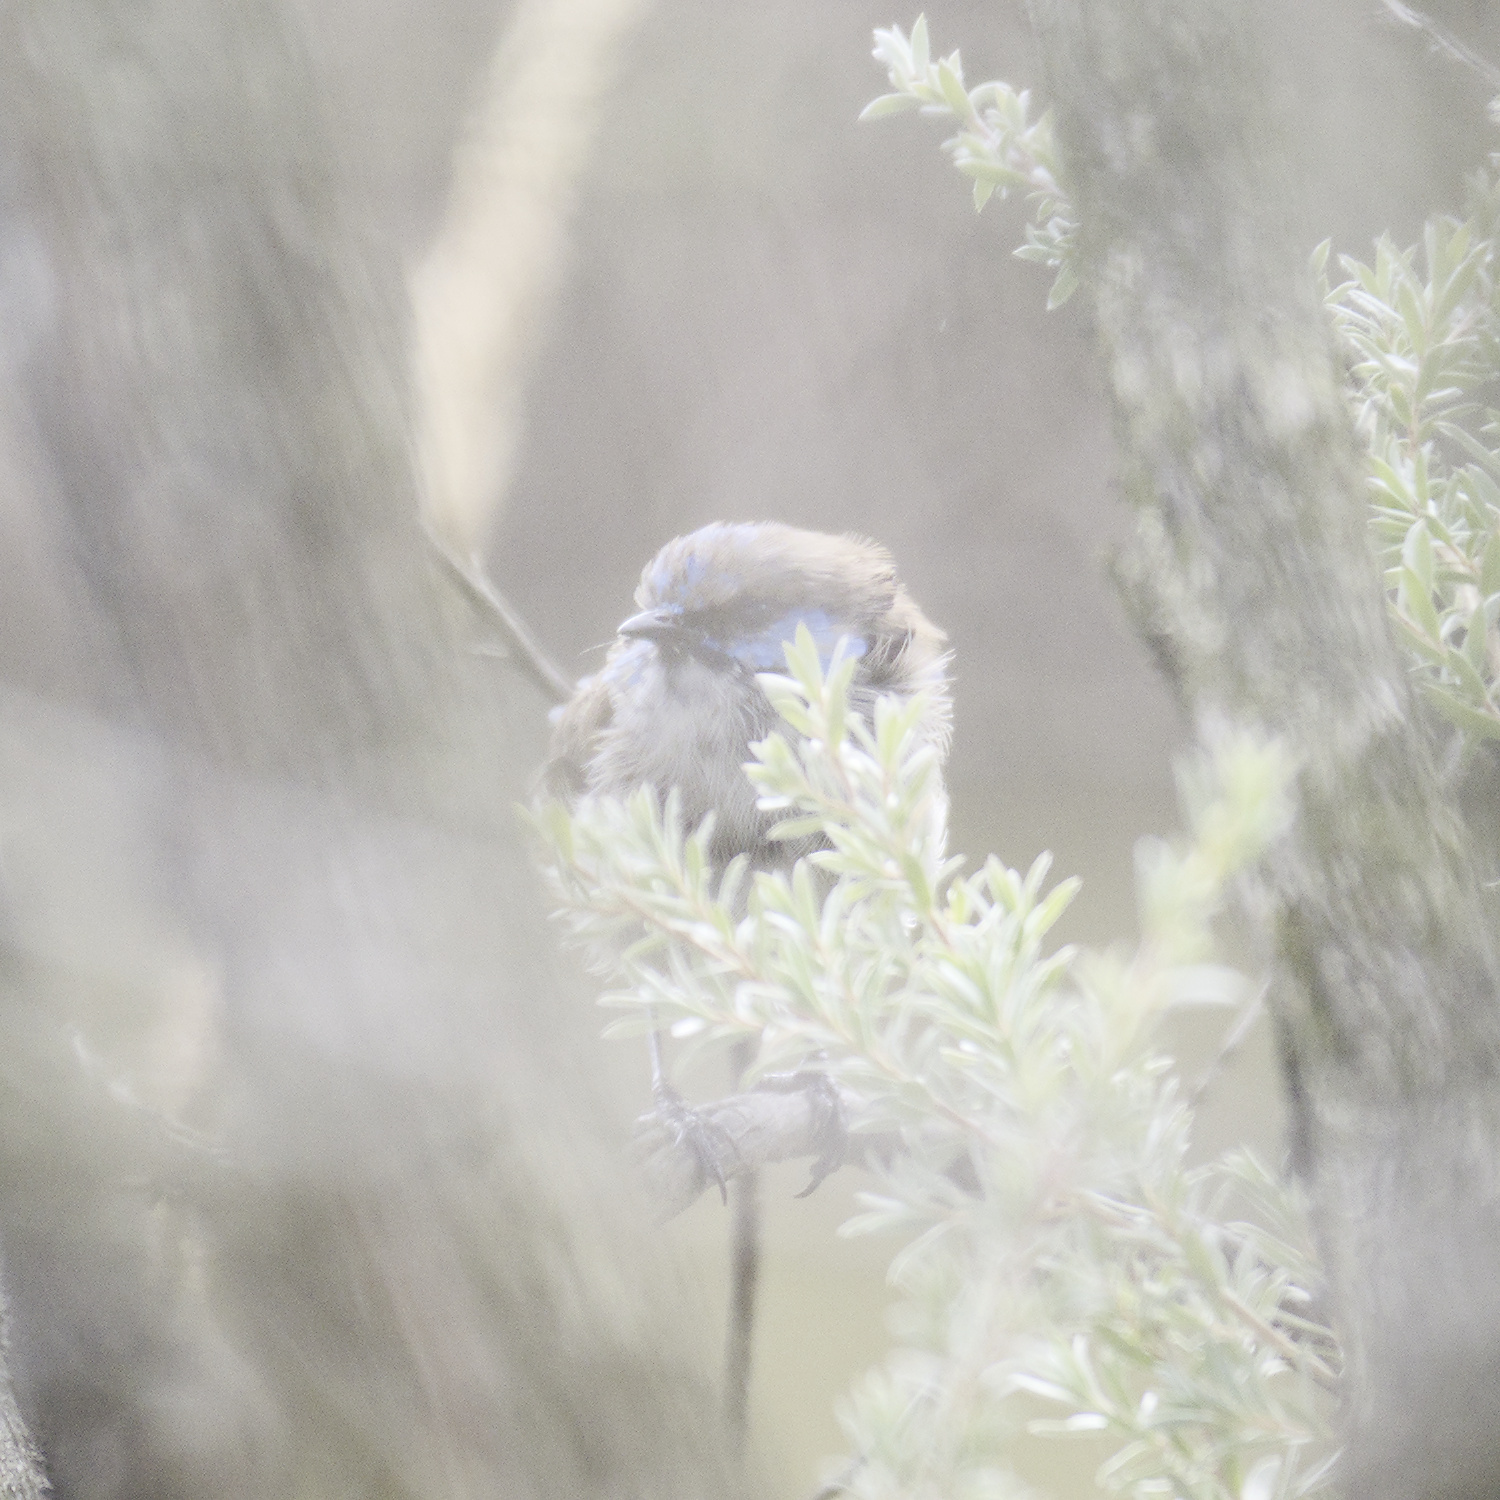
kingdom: Animalia
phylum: Chordata
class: Aves
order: Passeriformes
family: Maluridae
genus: Malurus
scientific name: Malurus cyaneus
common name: Superb fairywren
